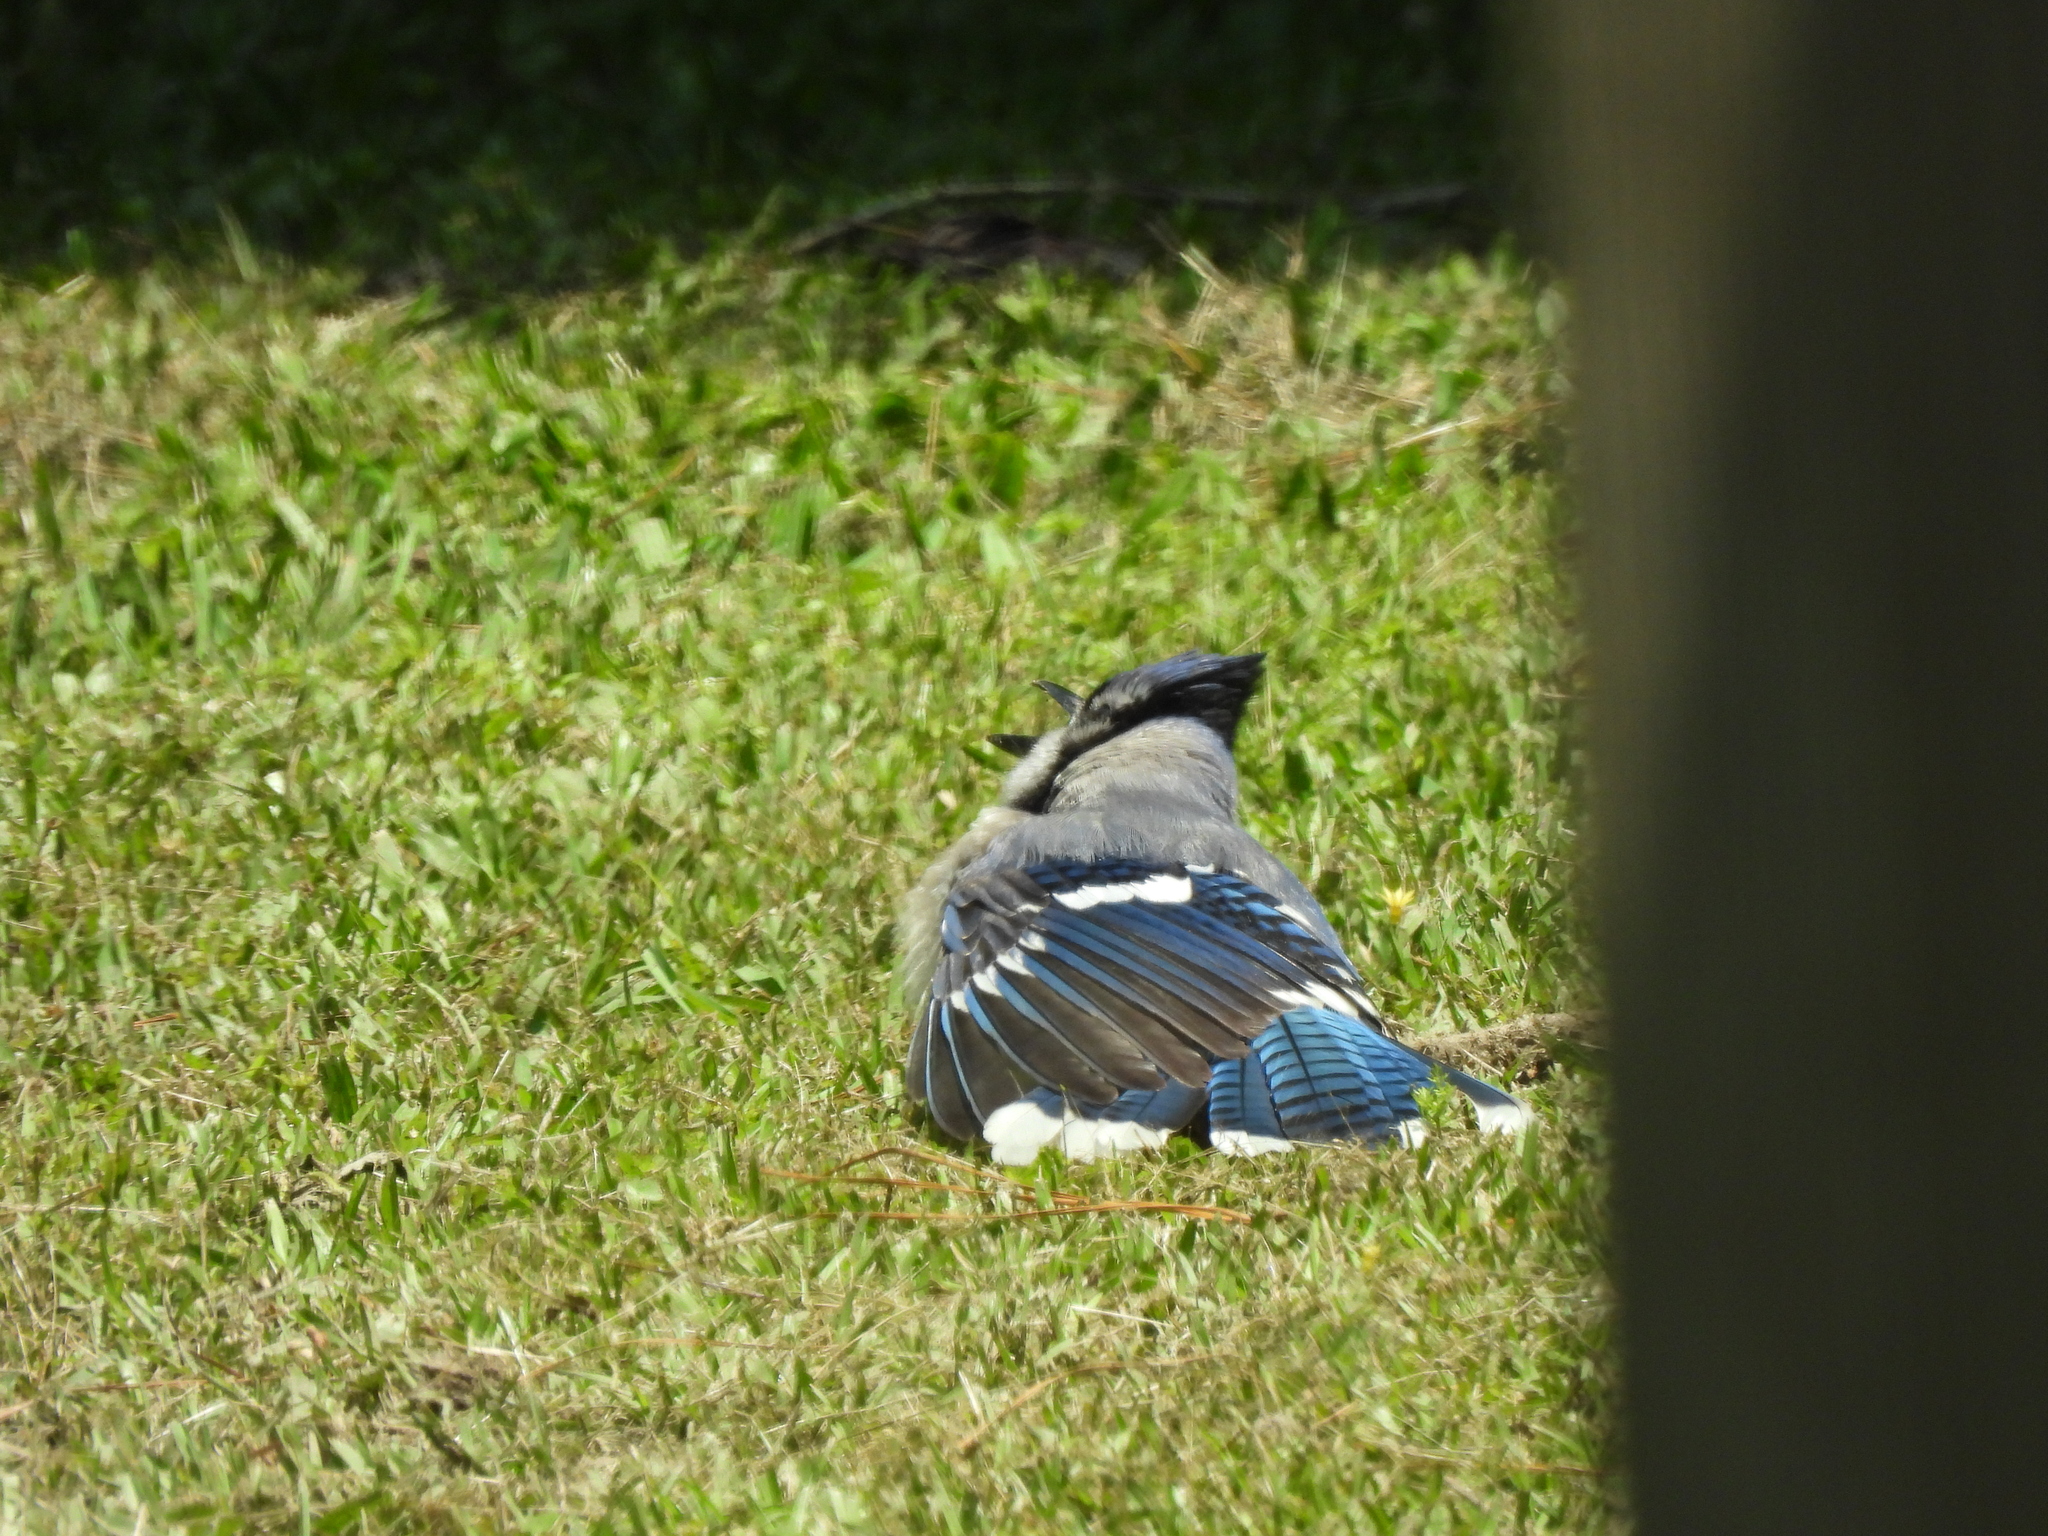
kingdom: Animalia
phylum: Chordata
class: Aves
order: Passeriformes
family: Corvidae
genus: Cyanocitta
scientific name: Cyanocitta cristata
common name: Blue jay
